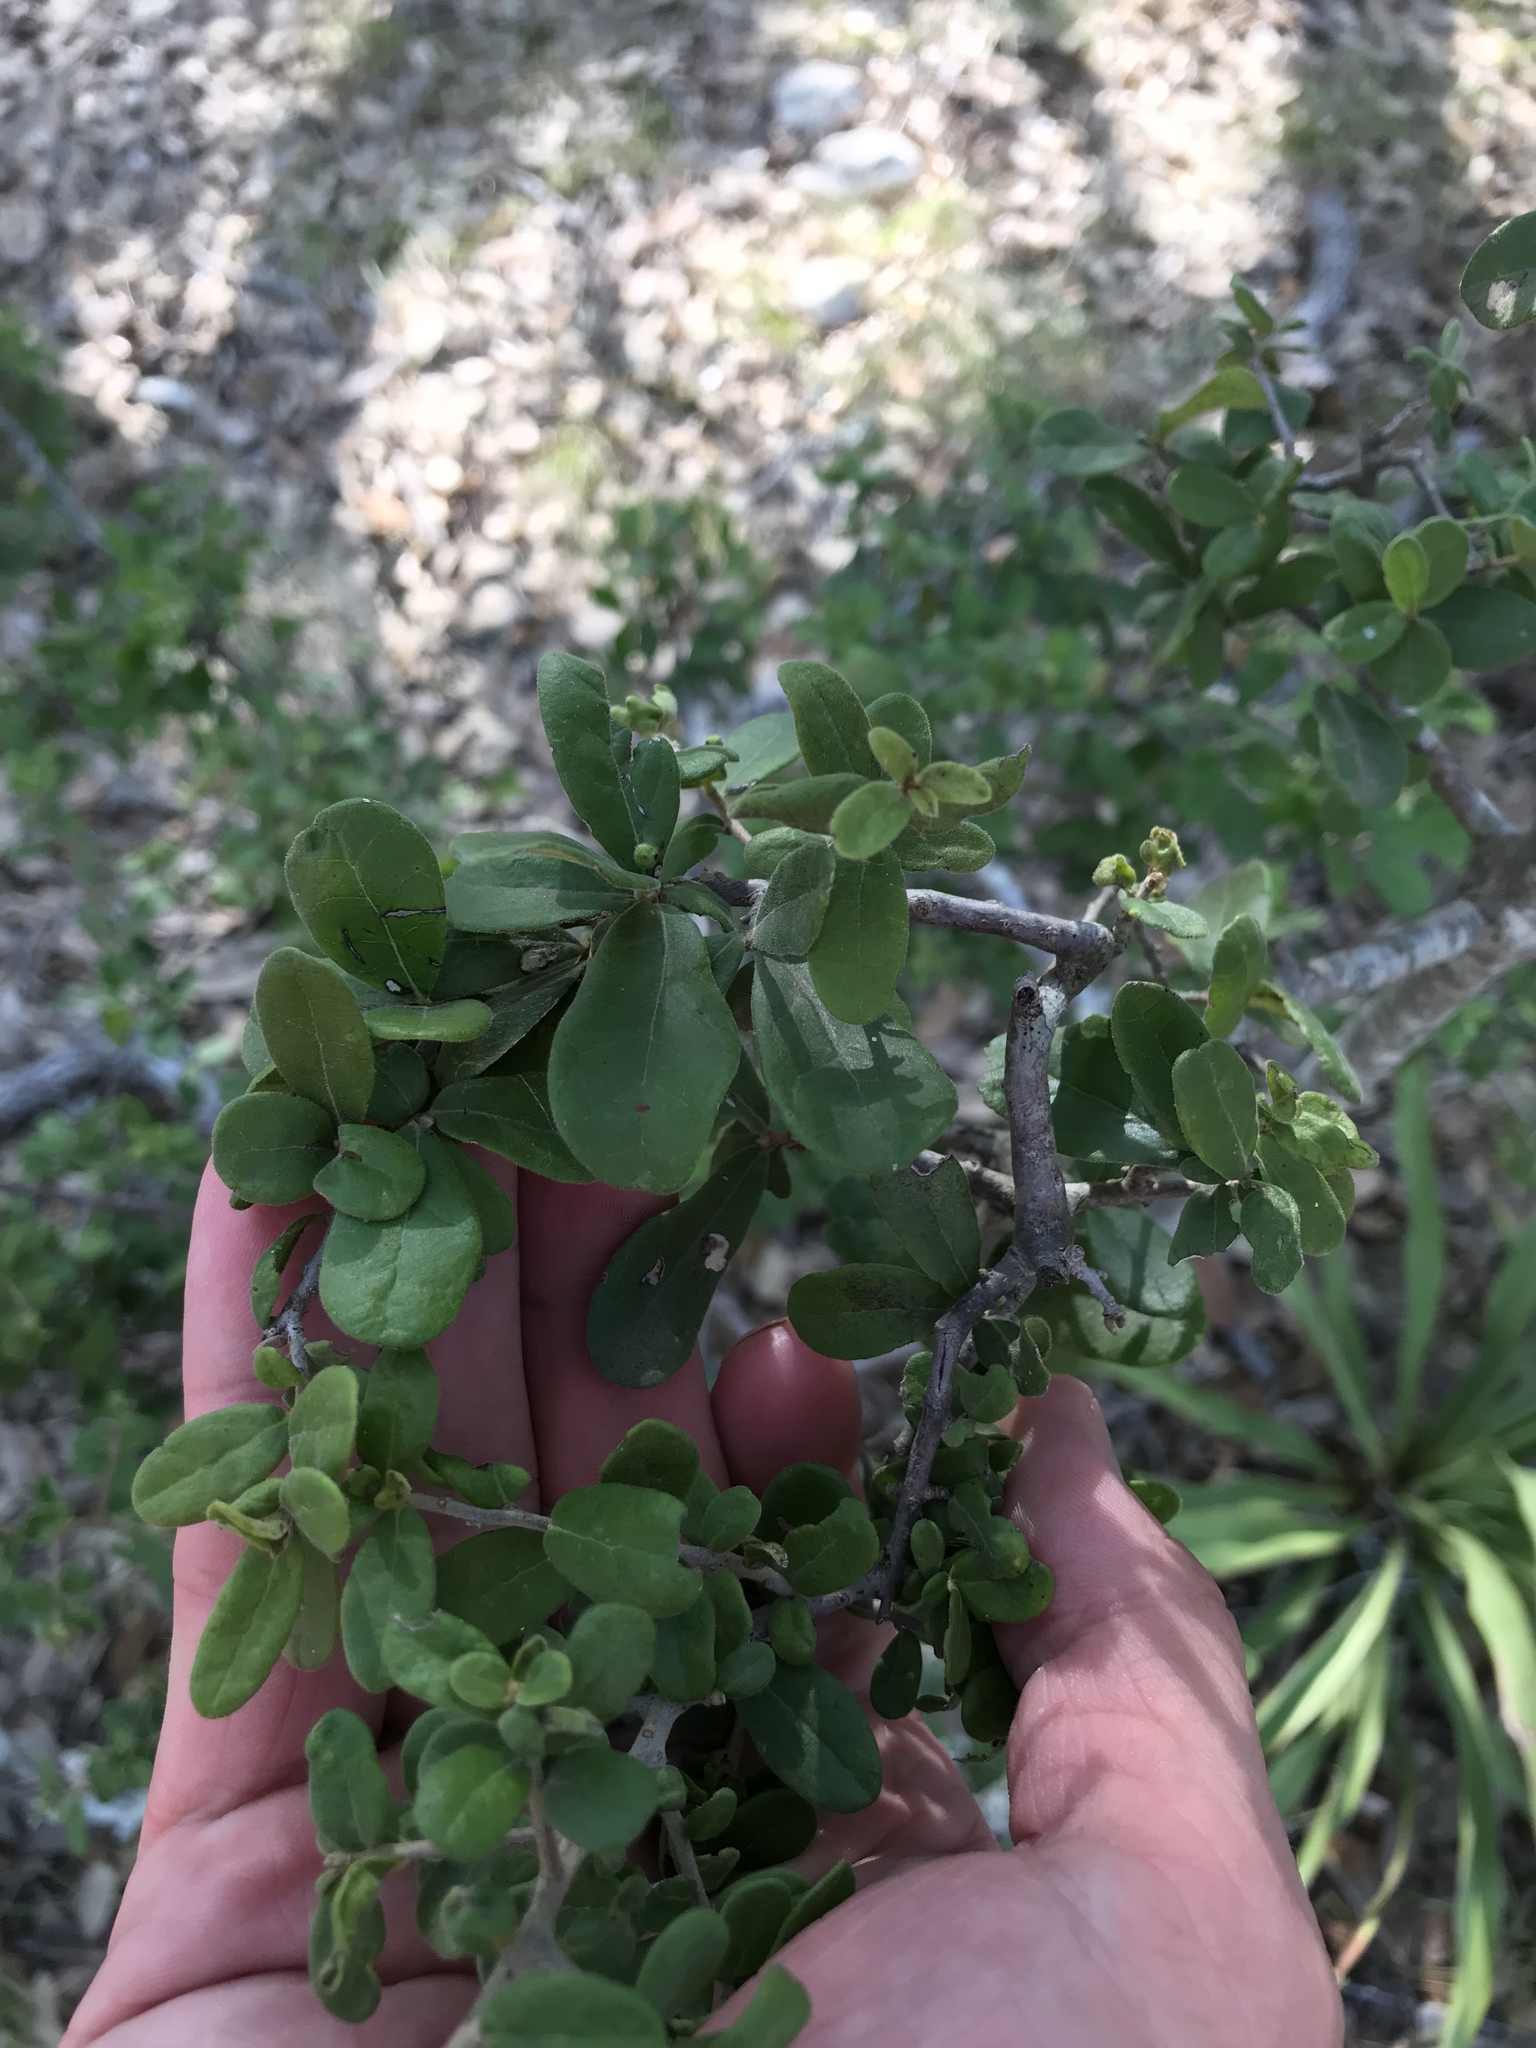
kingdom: Plantae
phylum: Tracheophyta
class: Magnoliopsida
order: Ericales
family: Ebenaceae
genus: Diospyros
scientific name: Diospyros texana
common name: Texas persimmon
